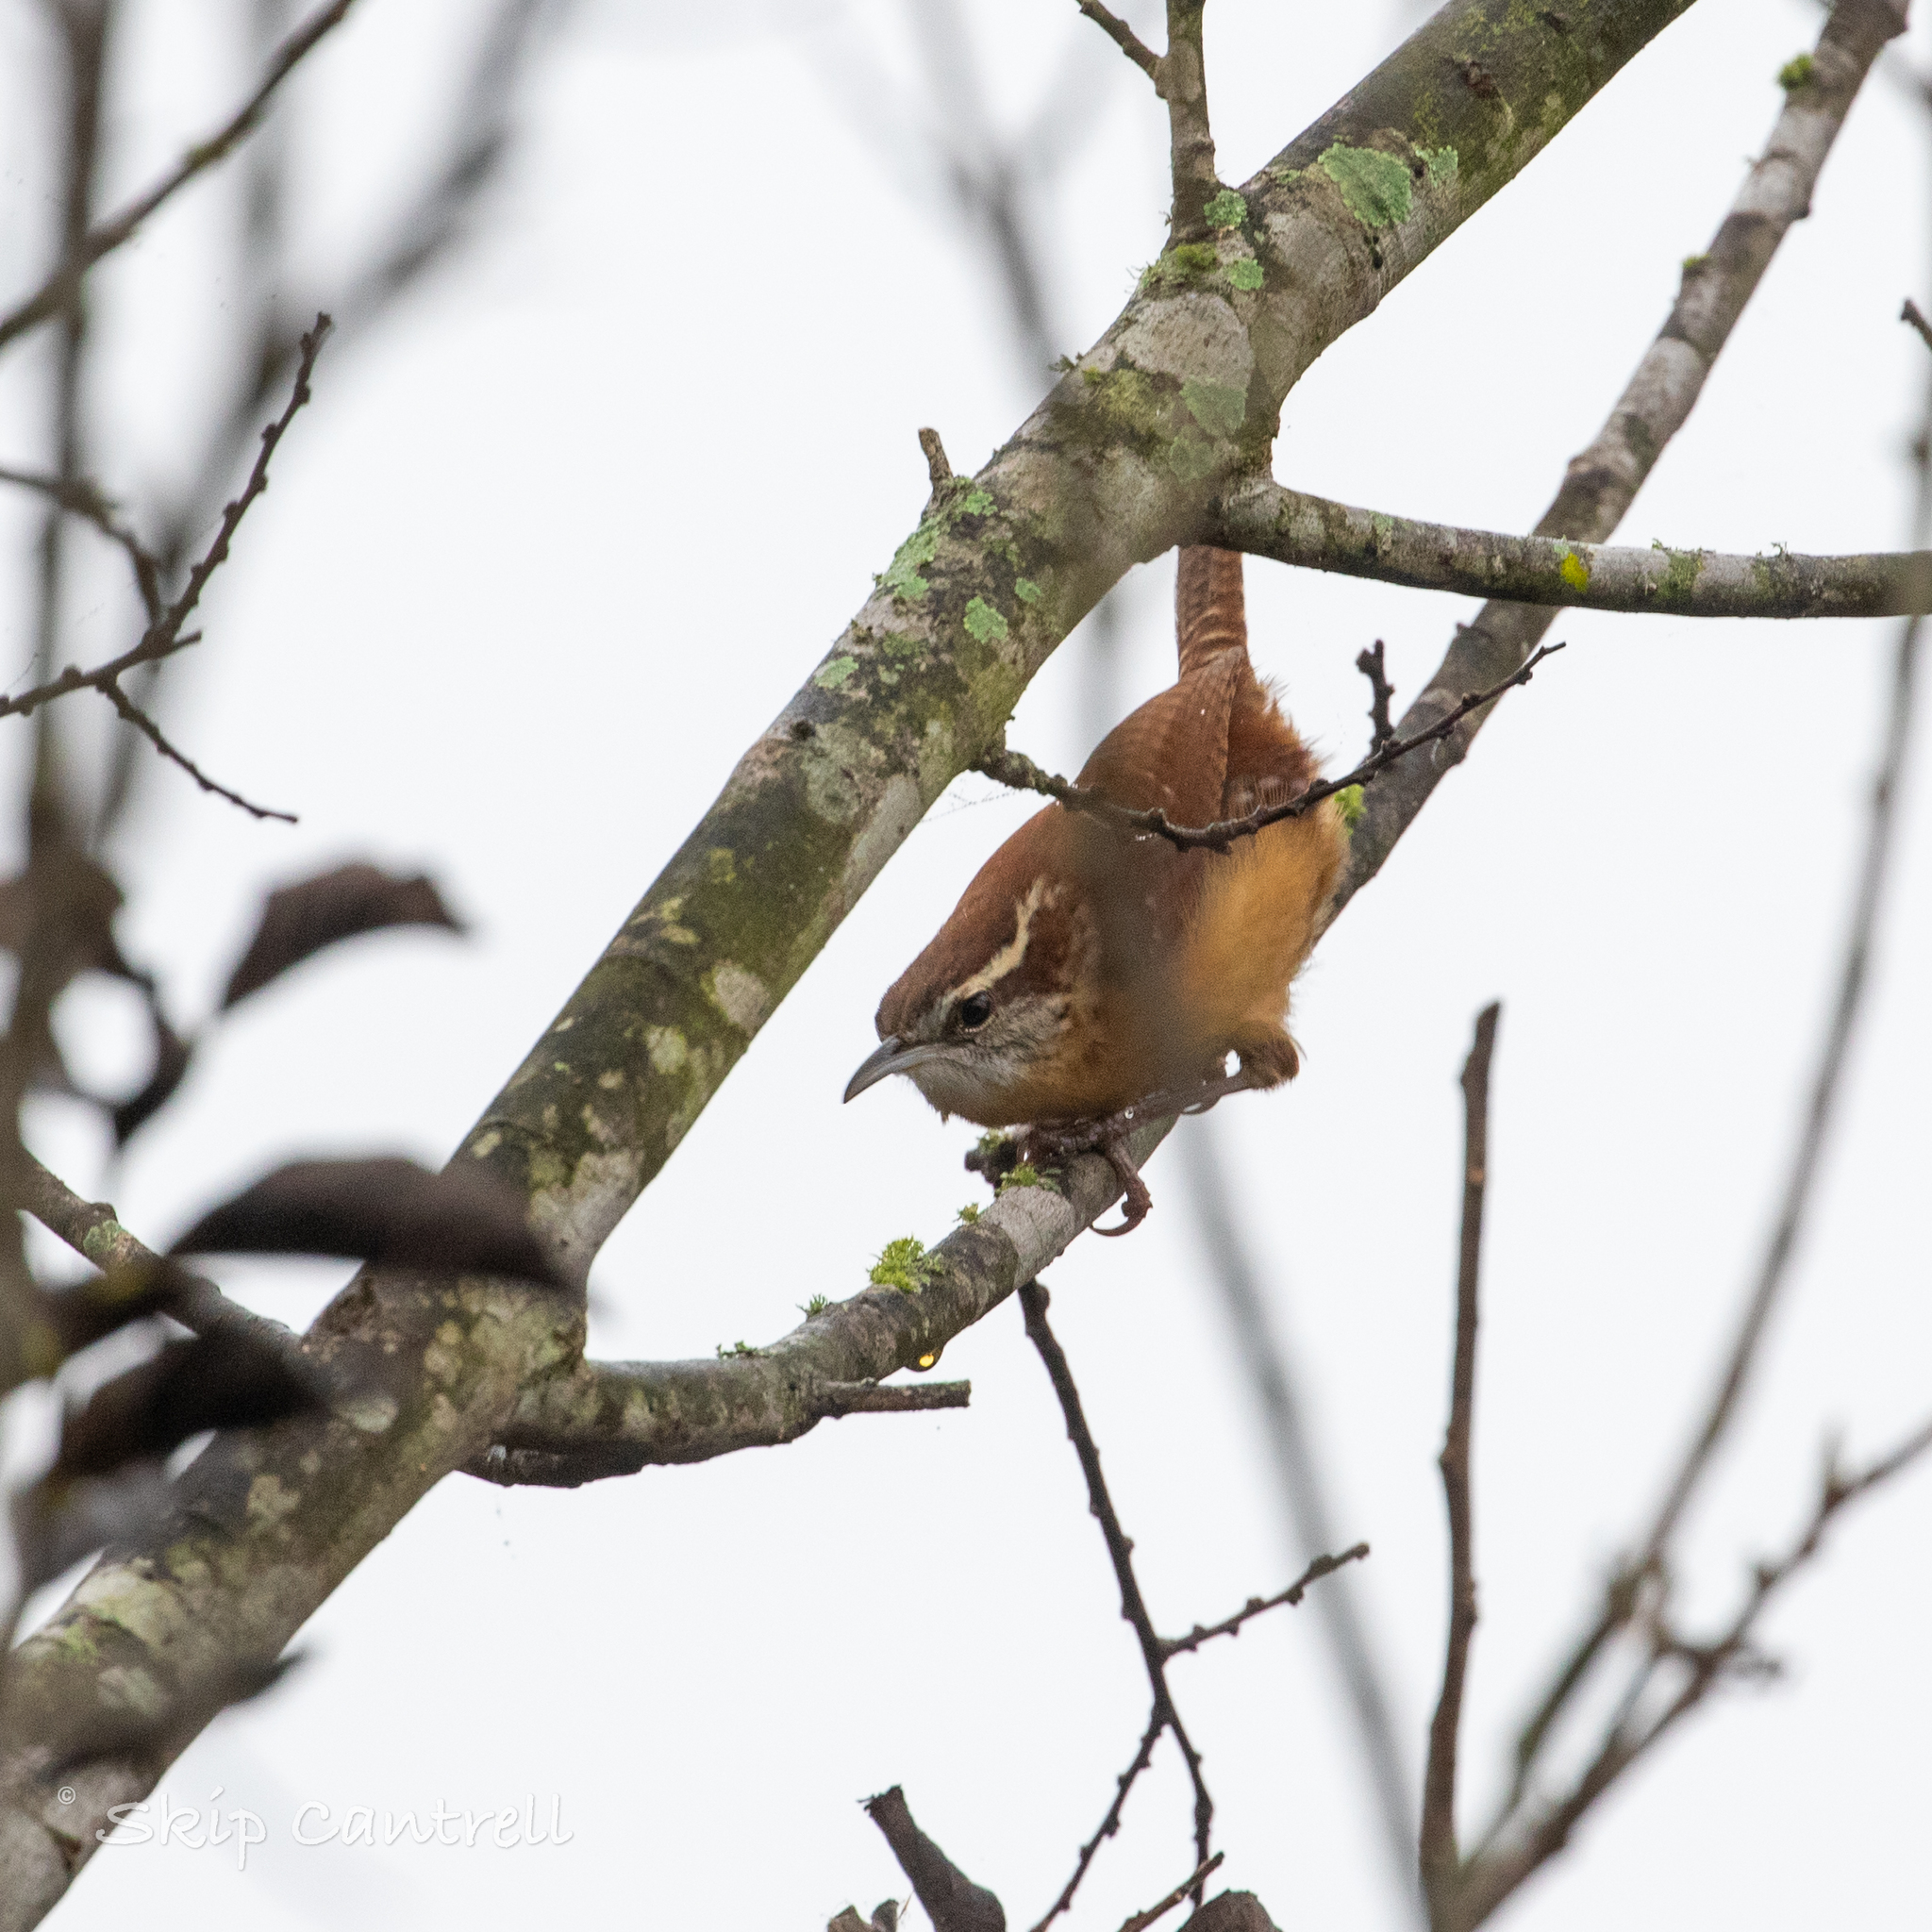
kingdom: Animalia
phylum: Chordata
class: Aves
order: Passeriformes
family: Troglodytidae
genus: Thryothorus
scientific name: Thryothorus ludovicianus
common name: Carolina wren
